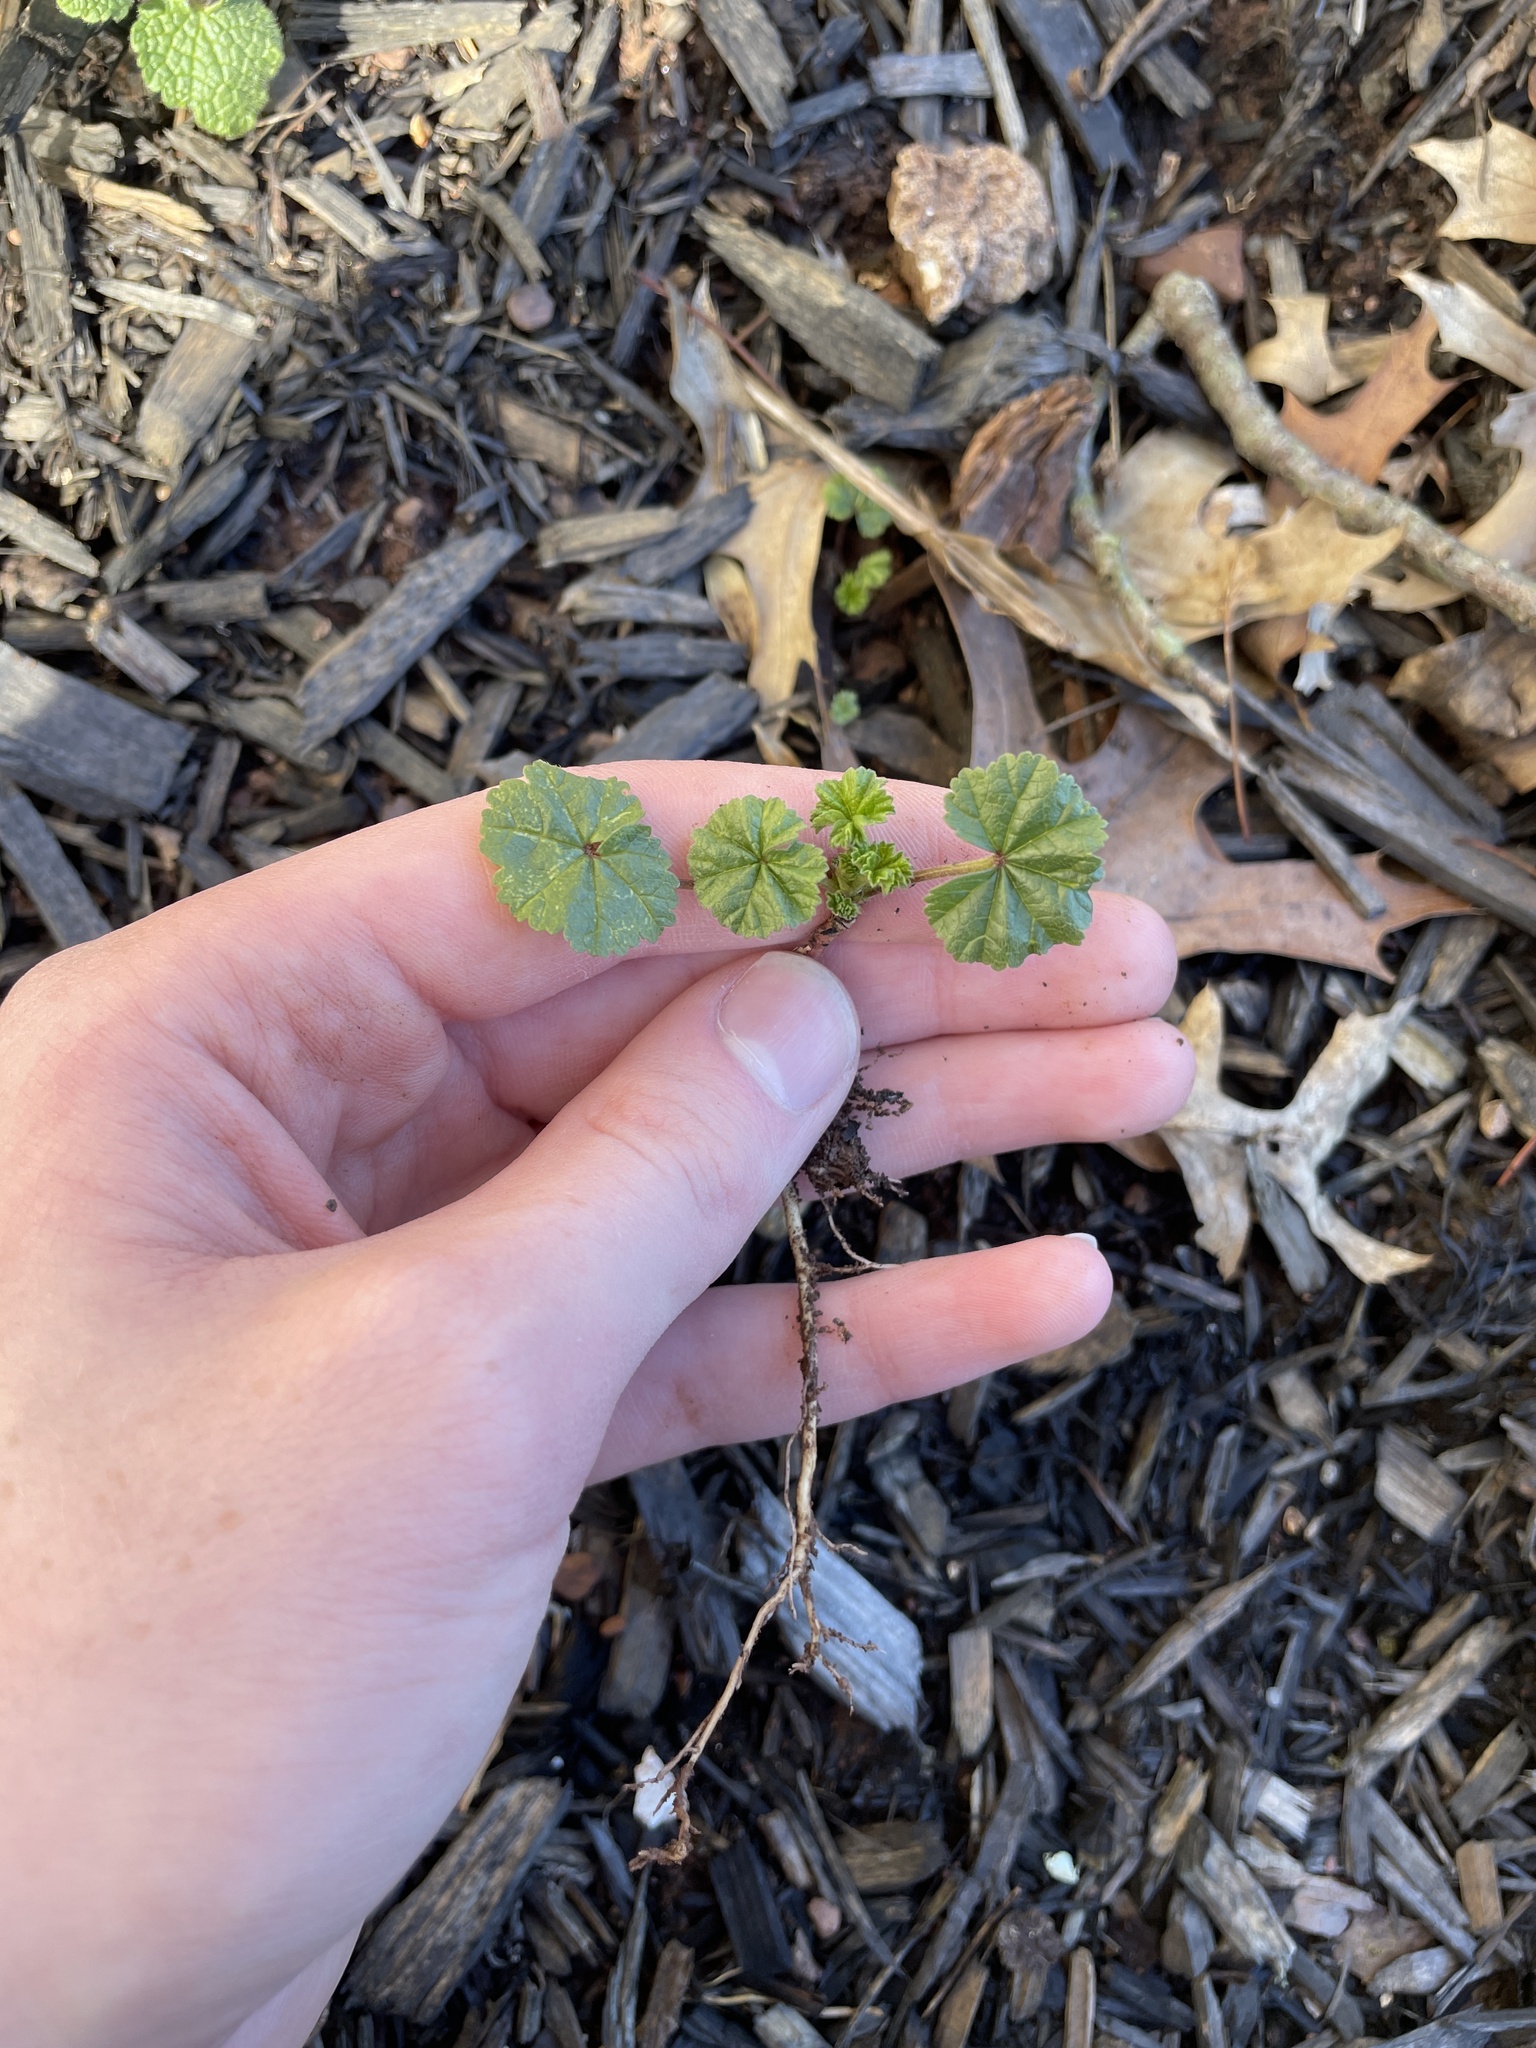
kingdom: Plantae
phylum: Tracheophyta
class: Magnoliopsida
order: Malvales
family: Malvaceae
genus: Malva
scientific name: Malva neglecta
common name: Common mallow
